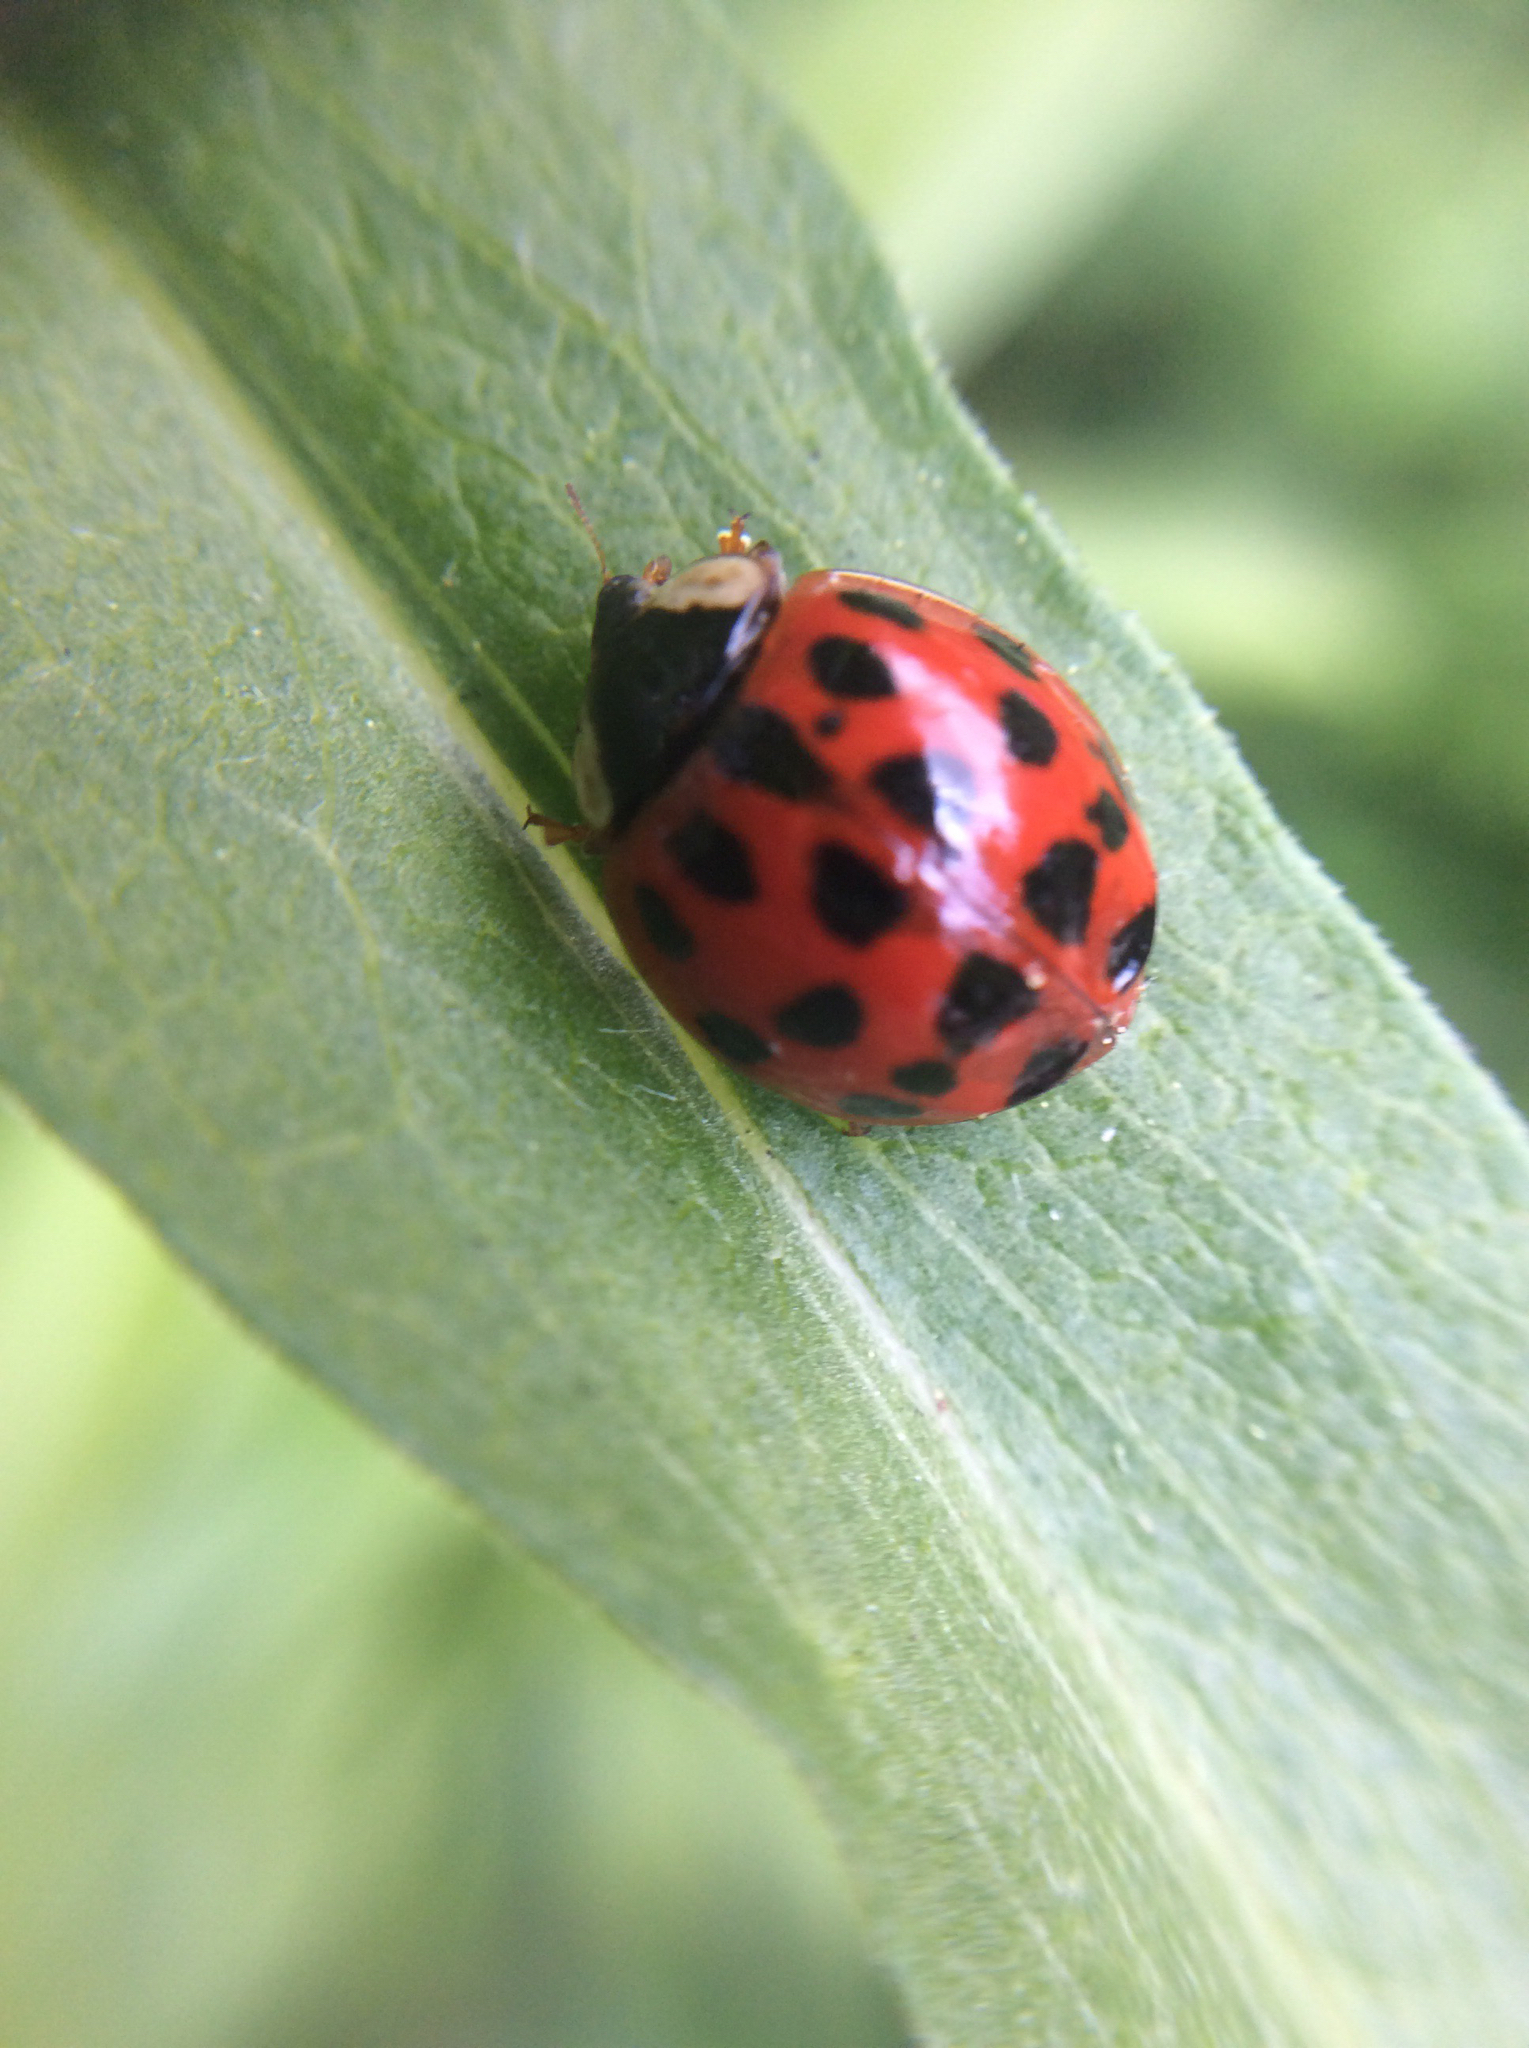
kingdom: Animalia
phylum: Arthropoda
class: Insecta
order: Coleoptera
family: Coccinellidae
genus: Harmonia
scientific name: Harmonia axyridis
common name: Harlequin ladybird
